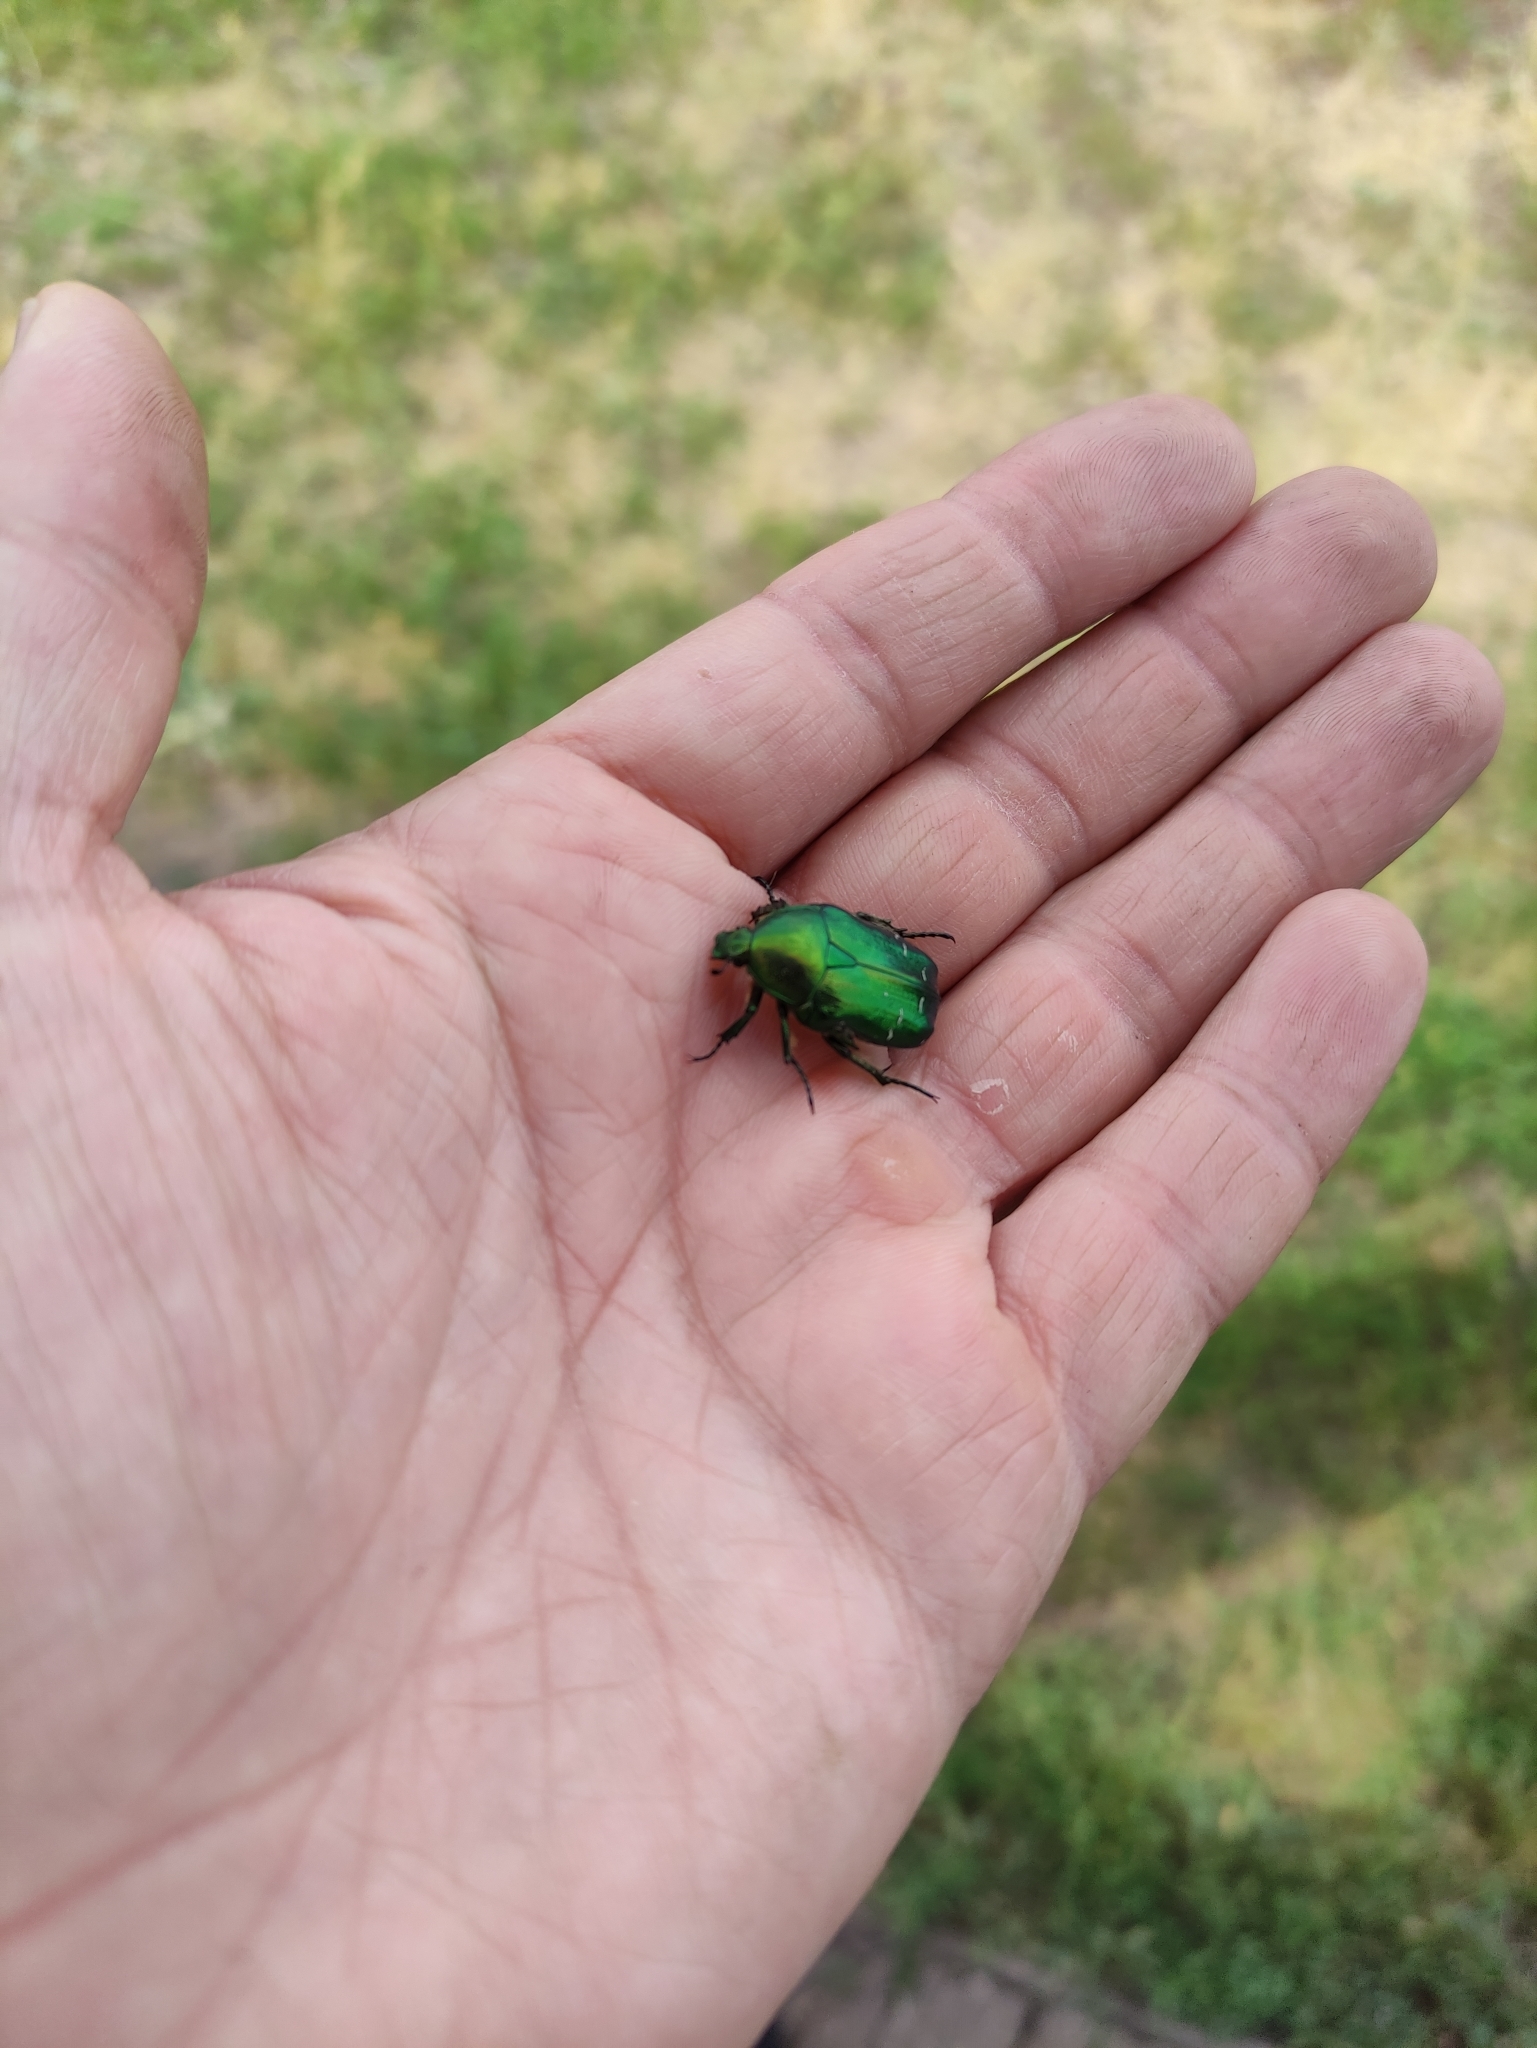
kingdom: Animalia
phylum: Arthropoda
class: Insecta
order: Coleoptera
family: Scarabaeidae
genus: Cetonia
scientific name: Cetonia aurata
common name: Rose chafer
